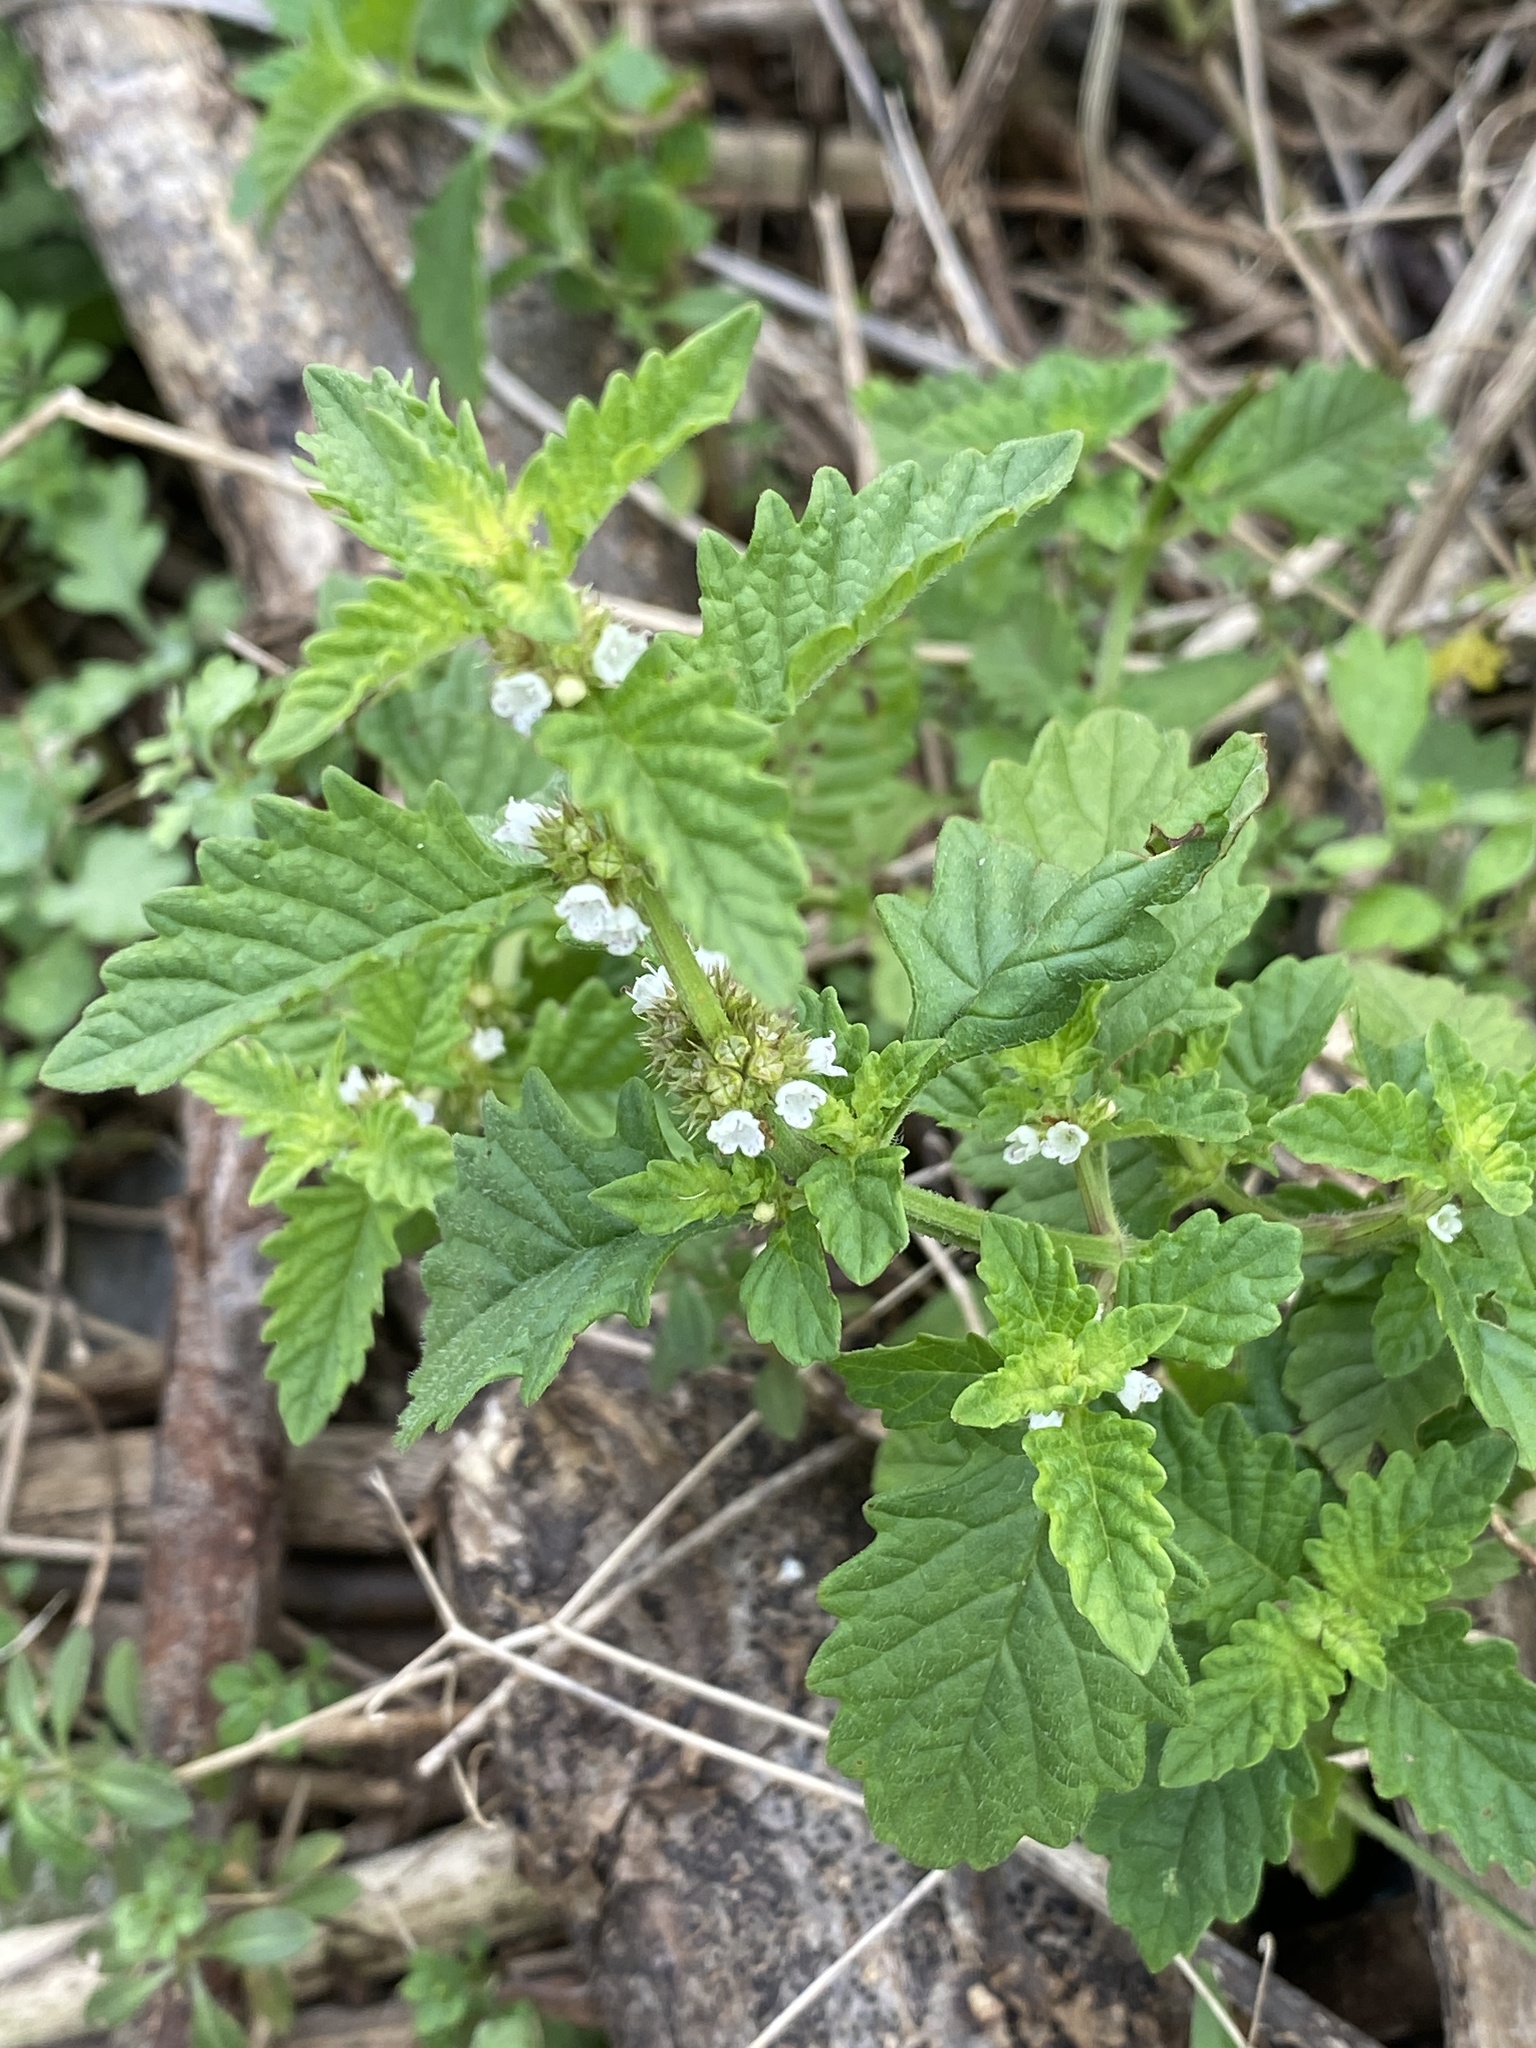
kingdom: Plantae
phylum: Tracheophyta
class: Magnoliopsida
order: Lamiales
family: Lamiaceae
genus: Lycopus
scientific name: Lycopus europaeus
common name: European bugleweed
